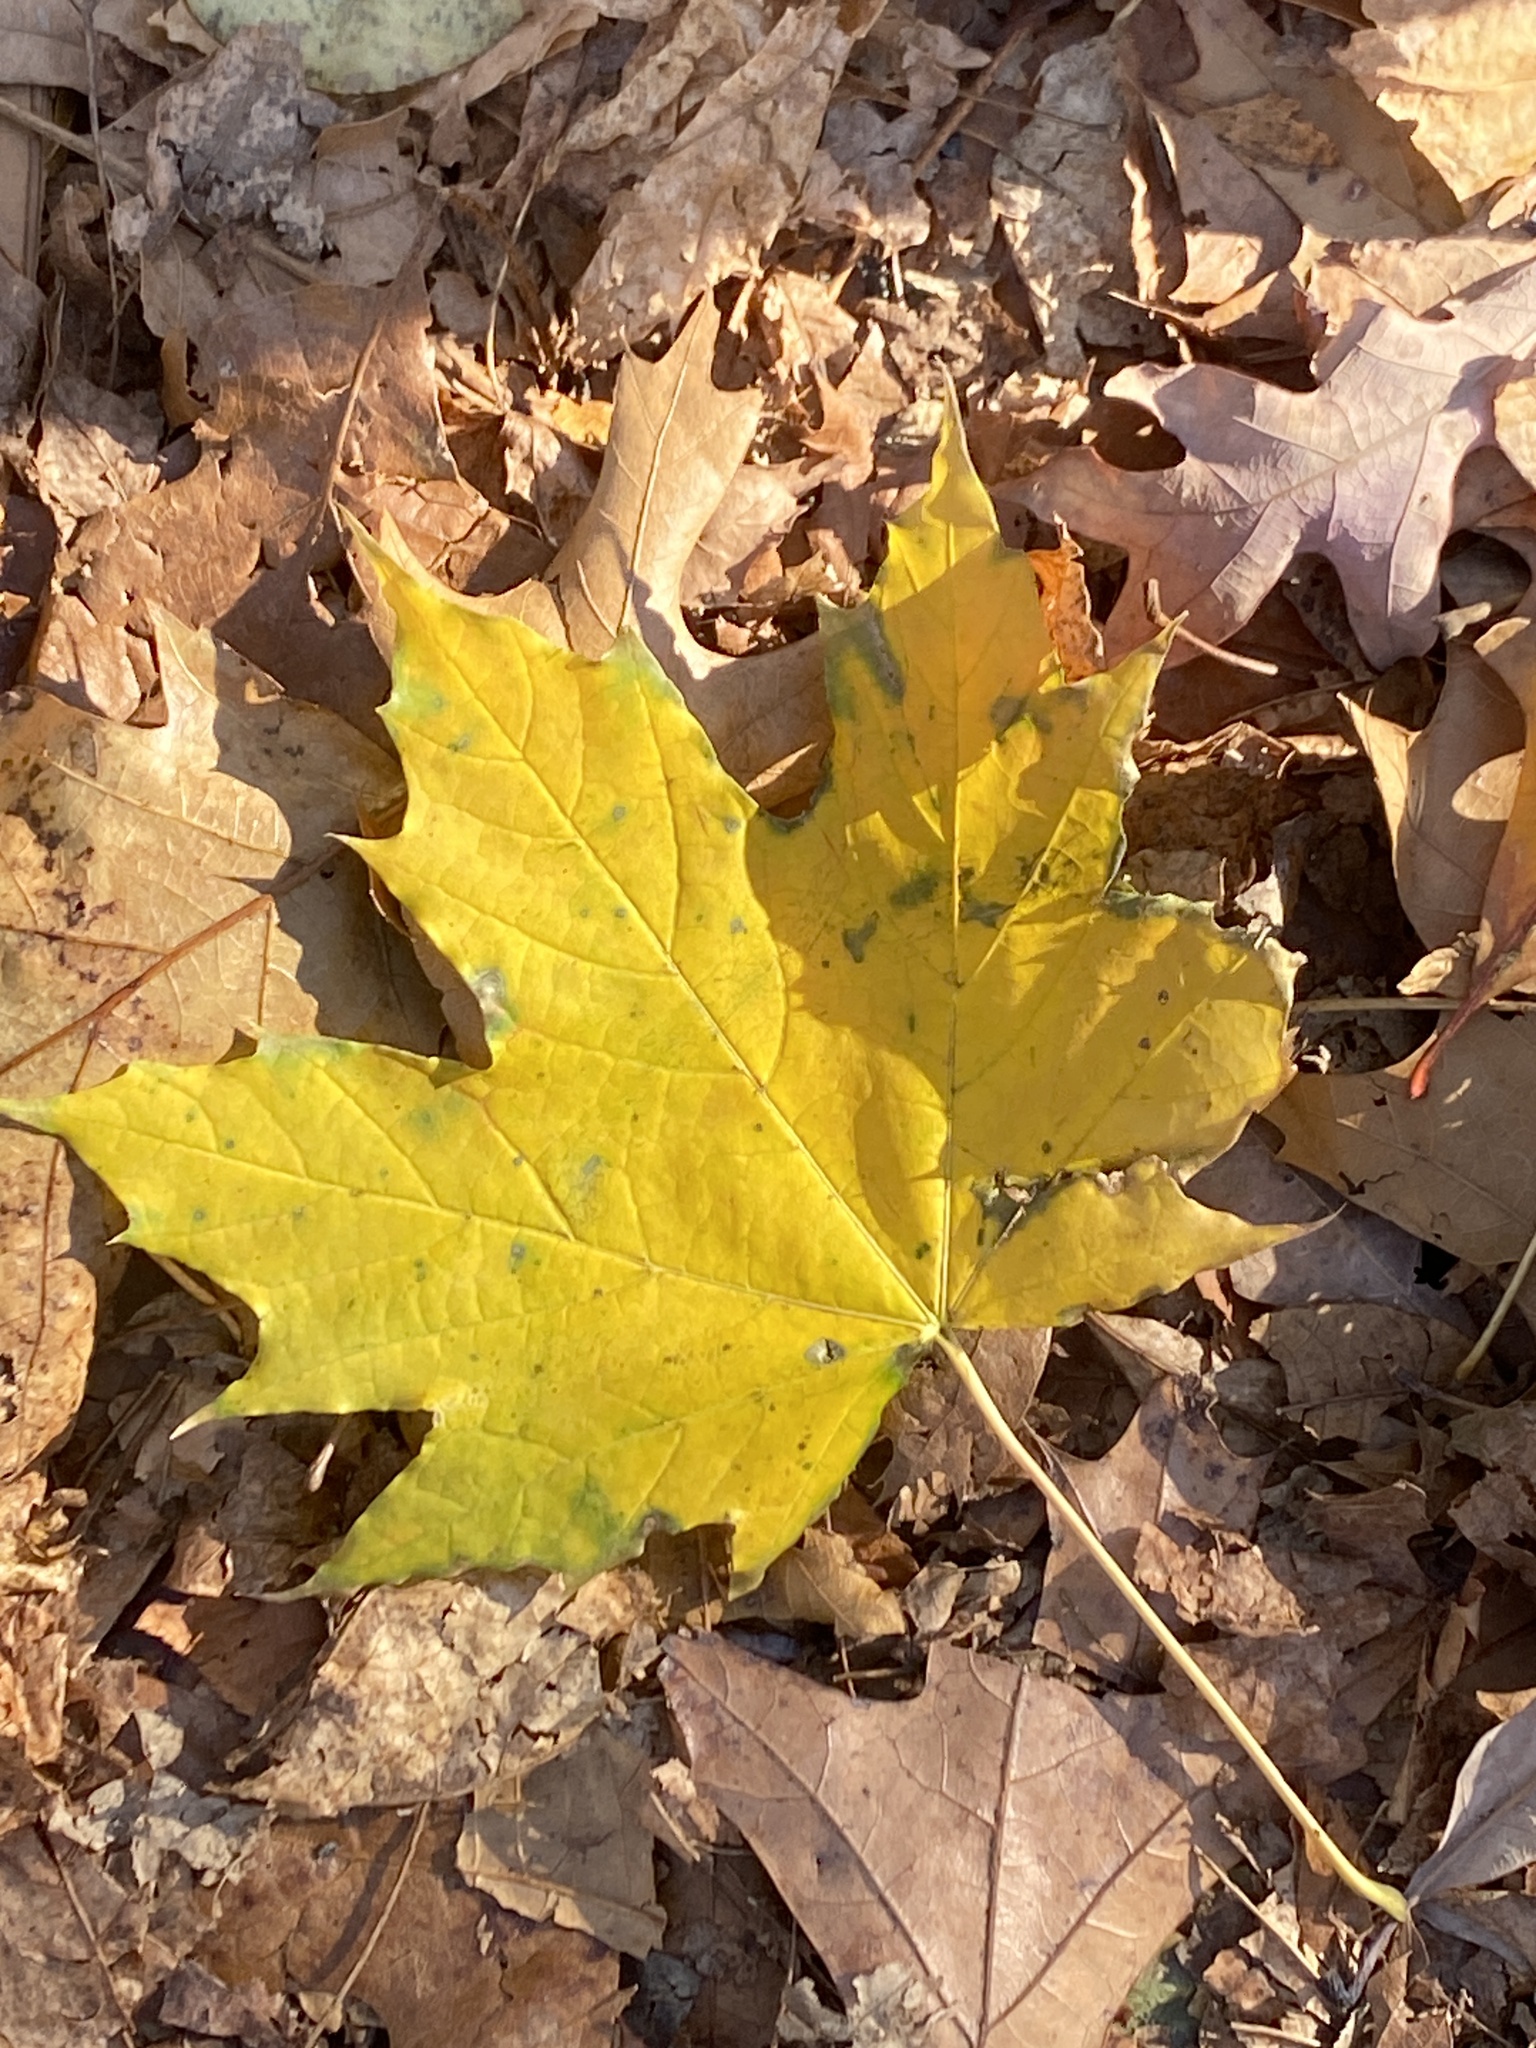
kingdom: Plantae
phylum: Tracheophyta
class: Magnoliopsida
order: Sapindales
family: Sapindaceae
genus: Acer
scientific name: Acer platanoides
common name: Norway maple
